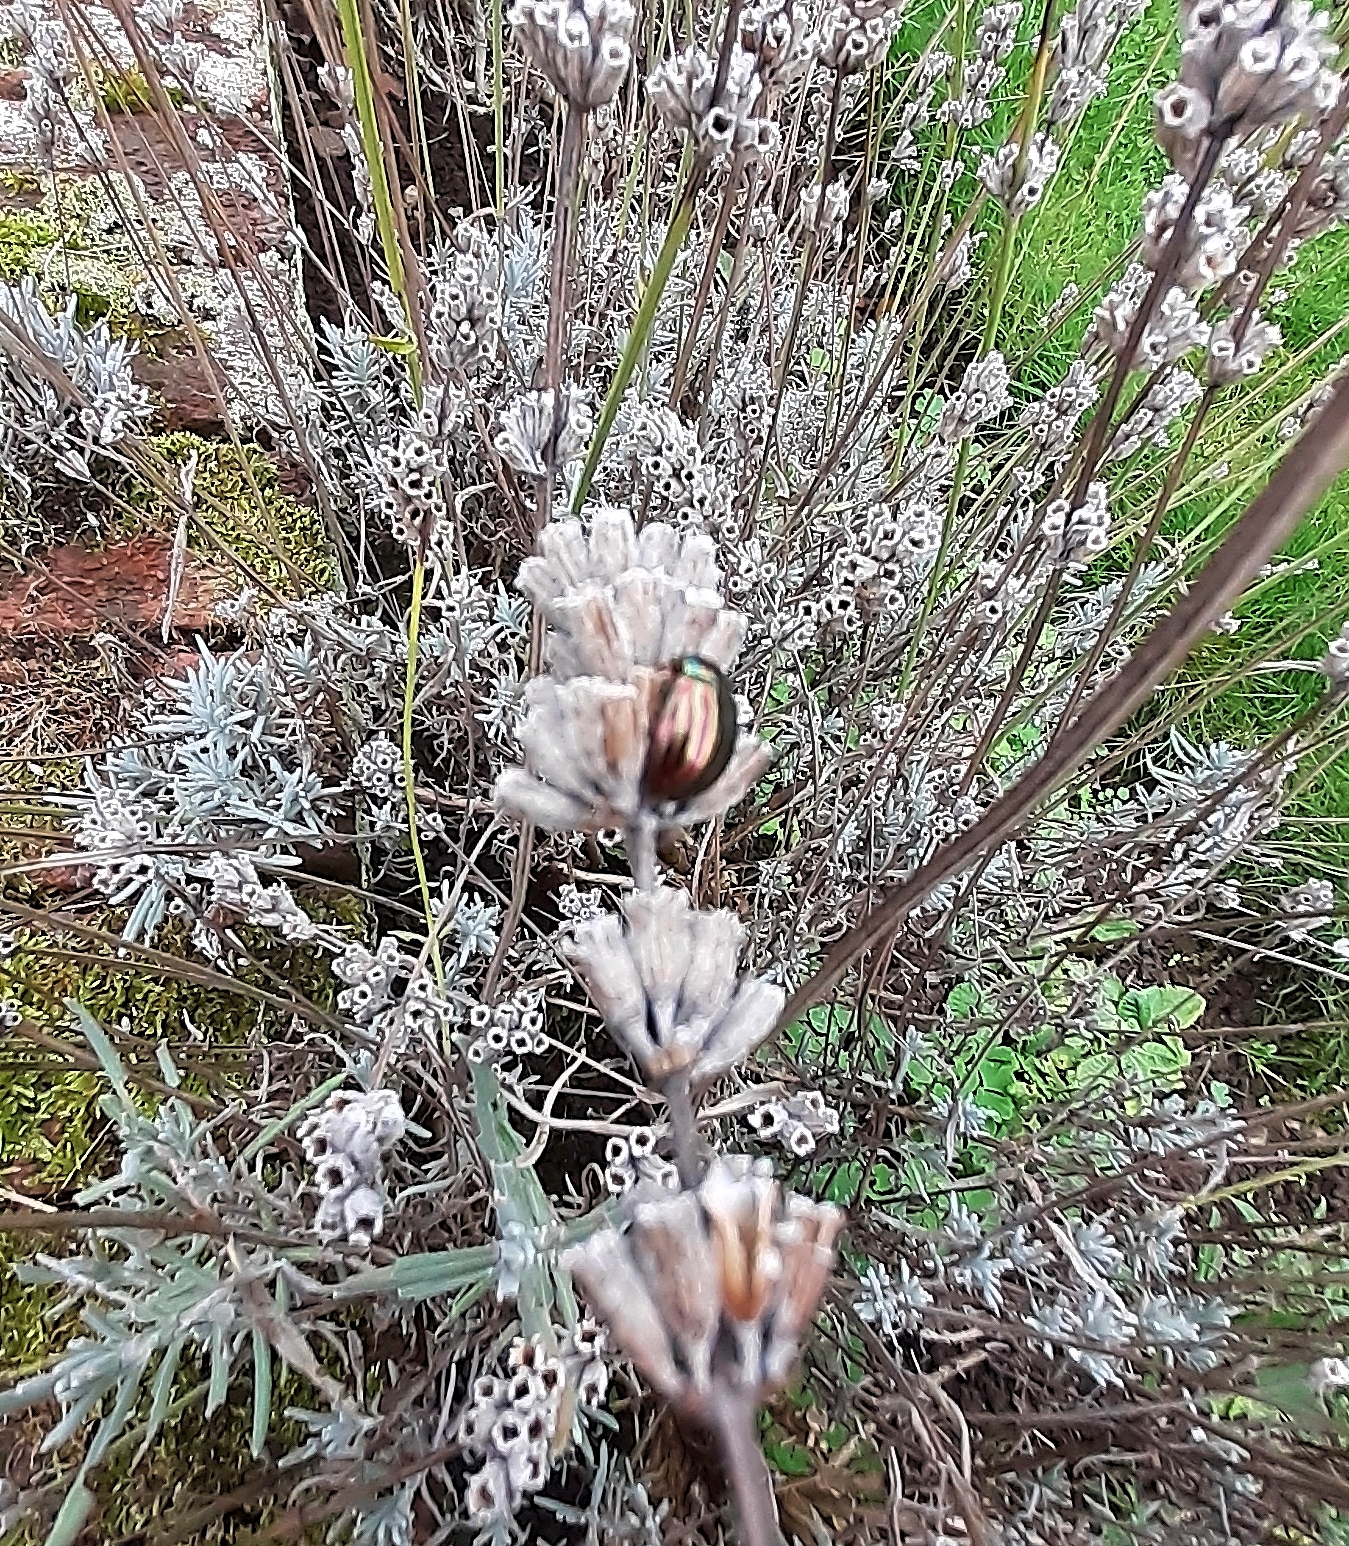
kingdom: Animalia
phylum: Arthropoda
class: Insecta
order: Coleoptera
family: Chrysomelidae
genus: Chrysolina
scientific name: Chrysolina americana
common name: Rosemary beetle
